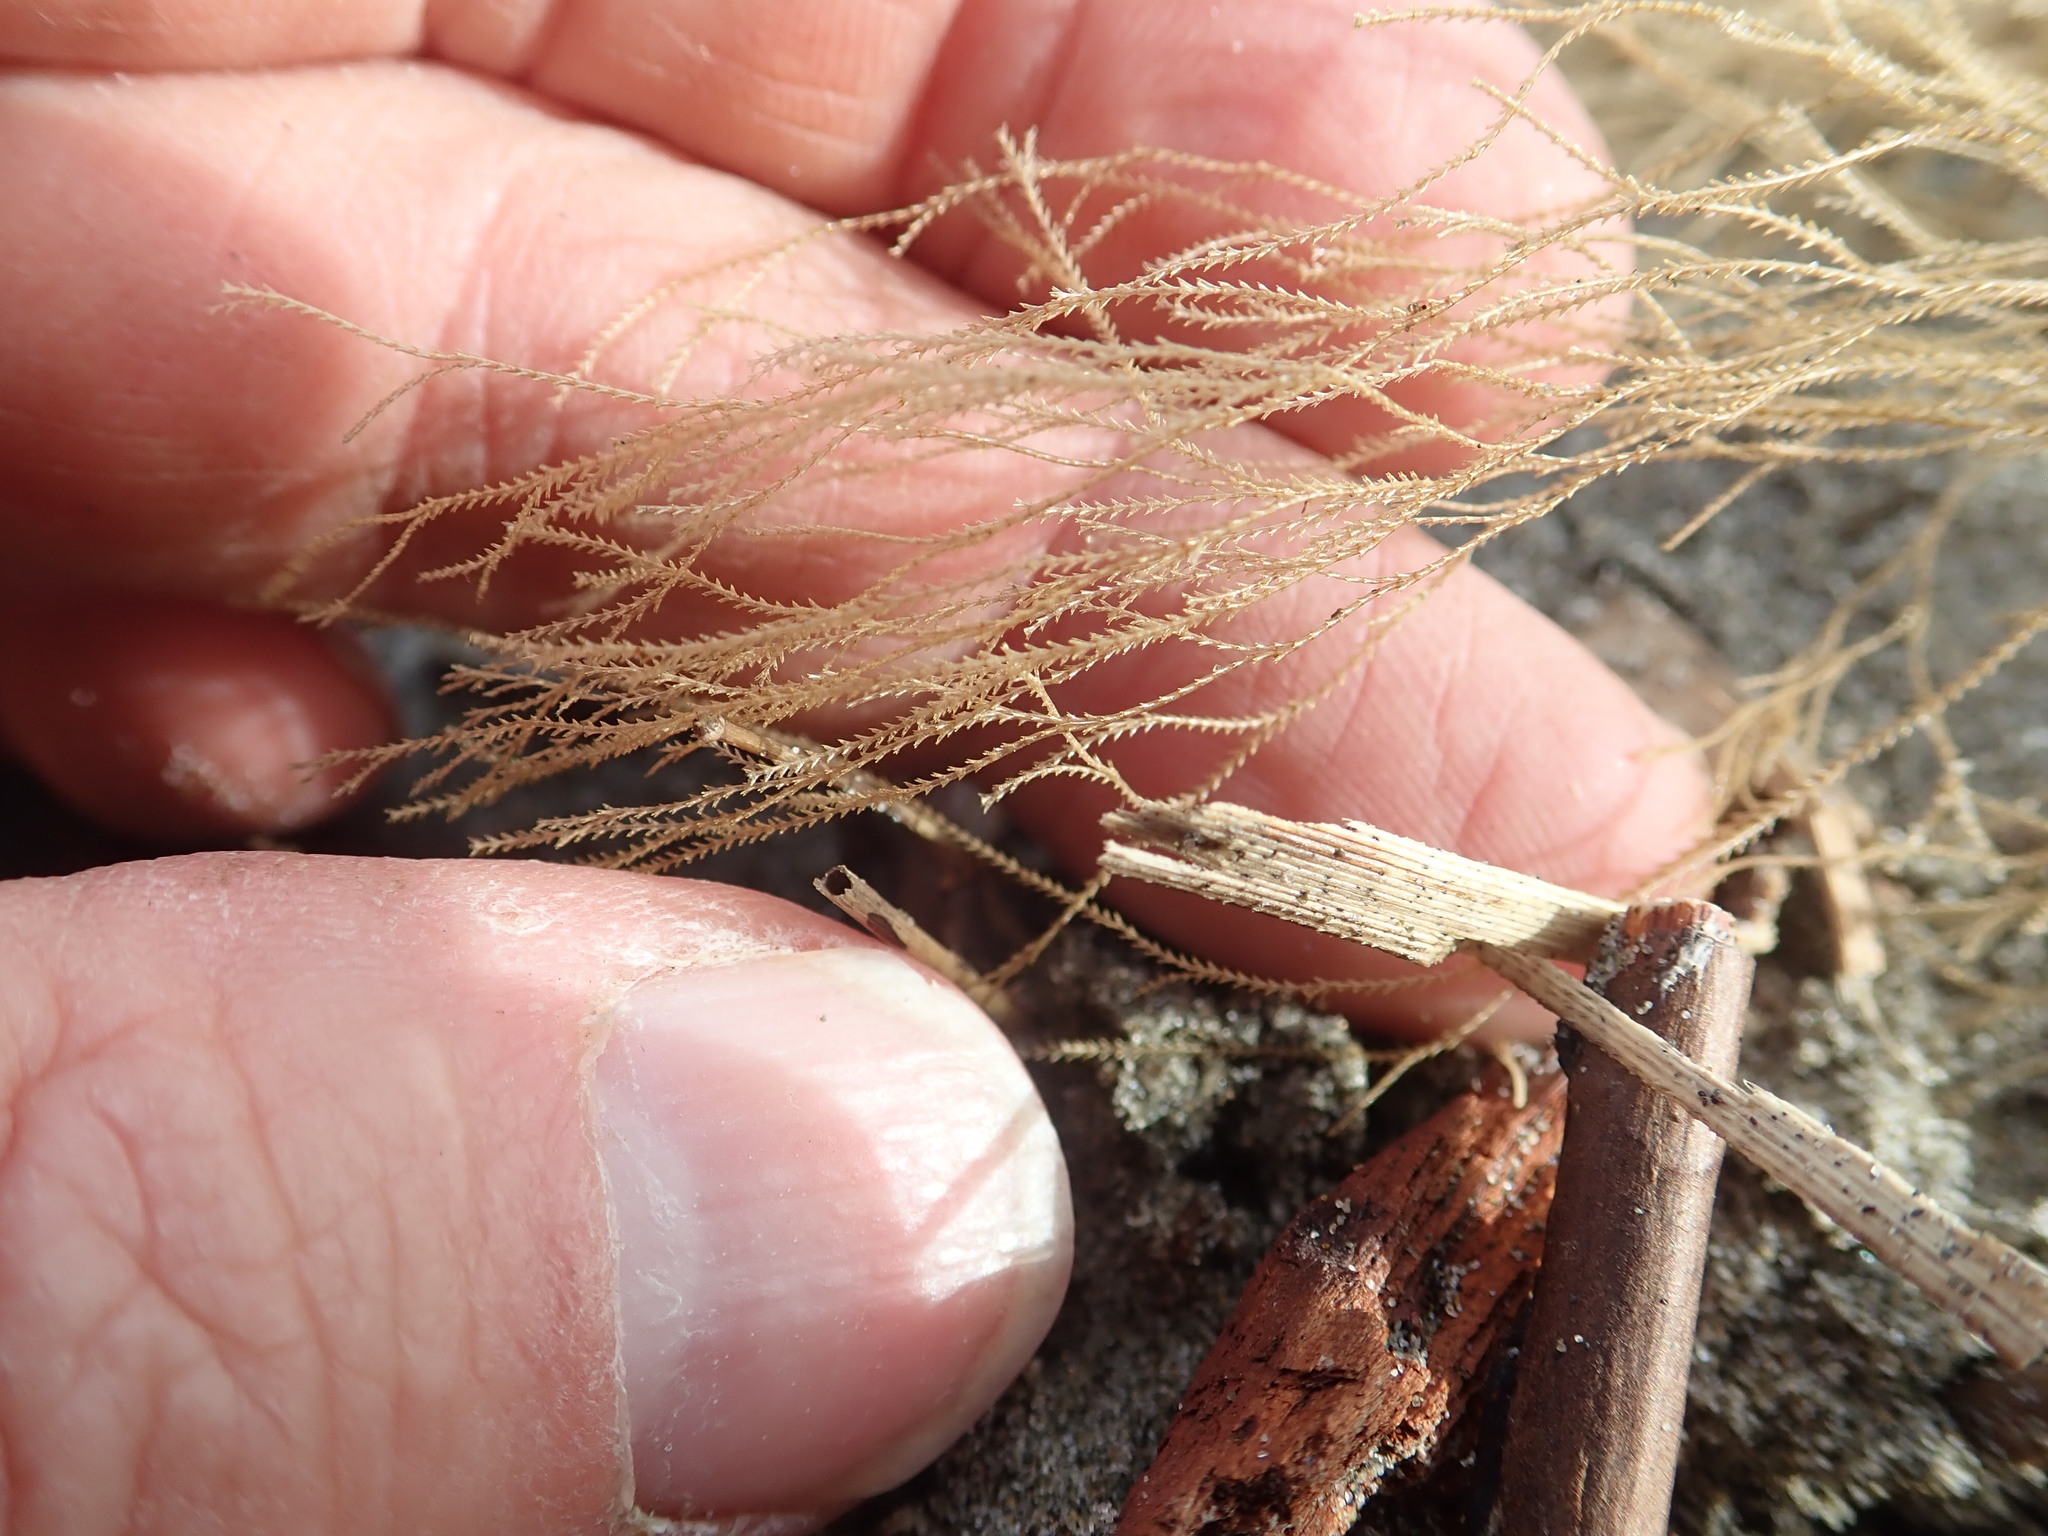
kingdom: Animalia
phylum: Cnidaria
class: Hydrozoa
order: Leptothecata
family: Sertulariidae
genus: Amphisbetia
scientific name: Amphisbetia bispinosa
